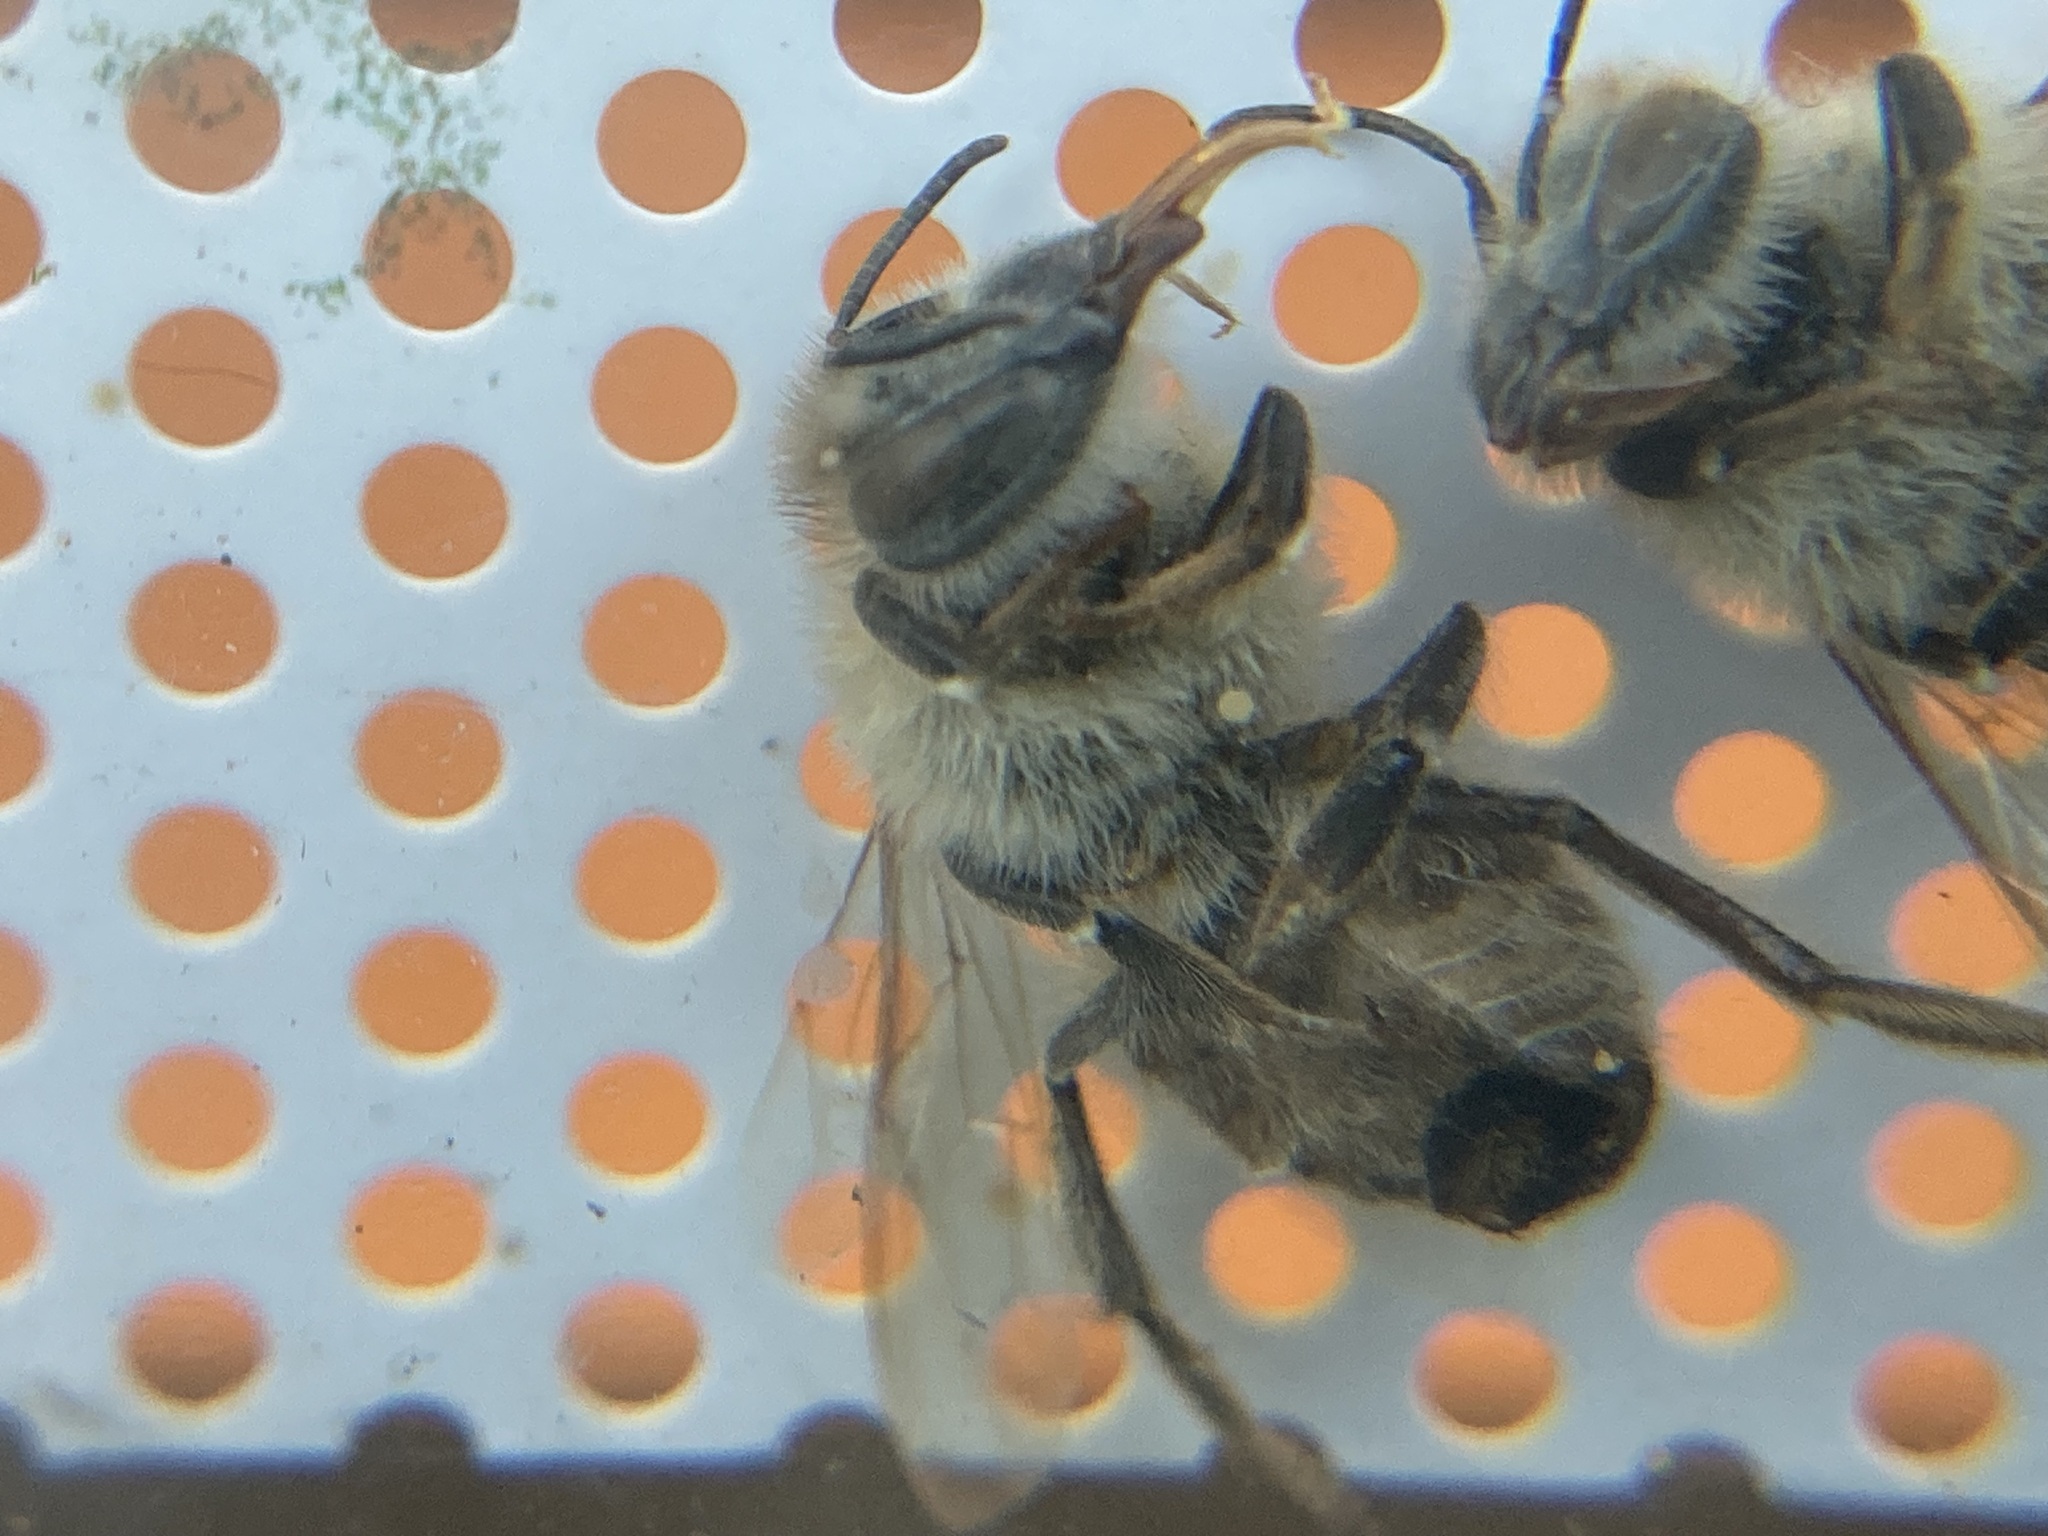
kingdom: Animalia
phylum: Arthropoda
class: Insecta
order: Hymenoptera
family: Apidae
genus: Apis
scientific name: Apis mellifera
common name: Honey bee
